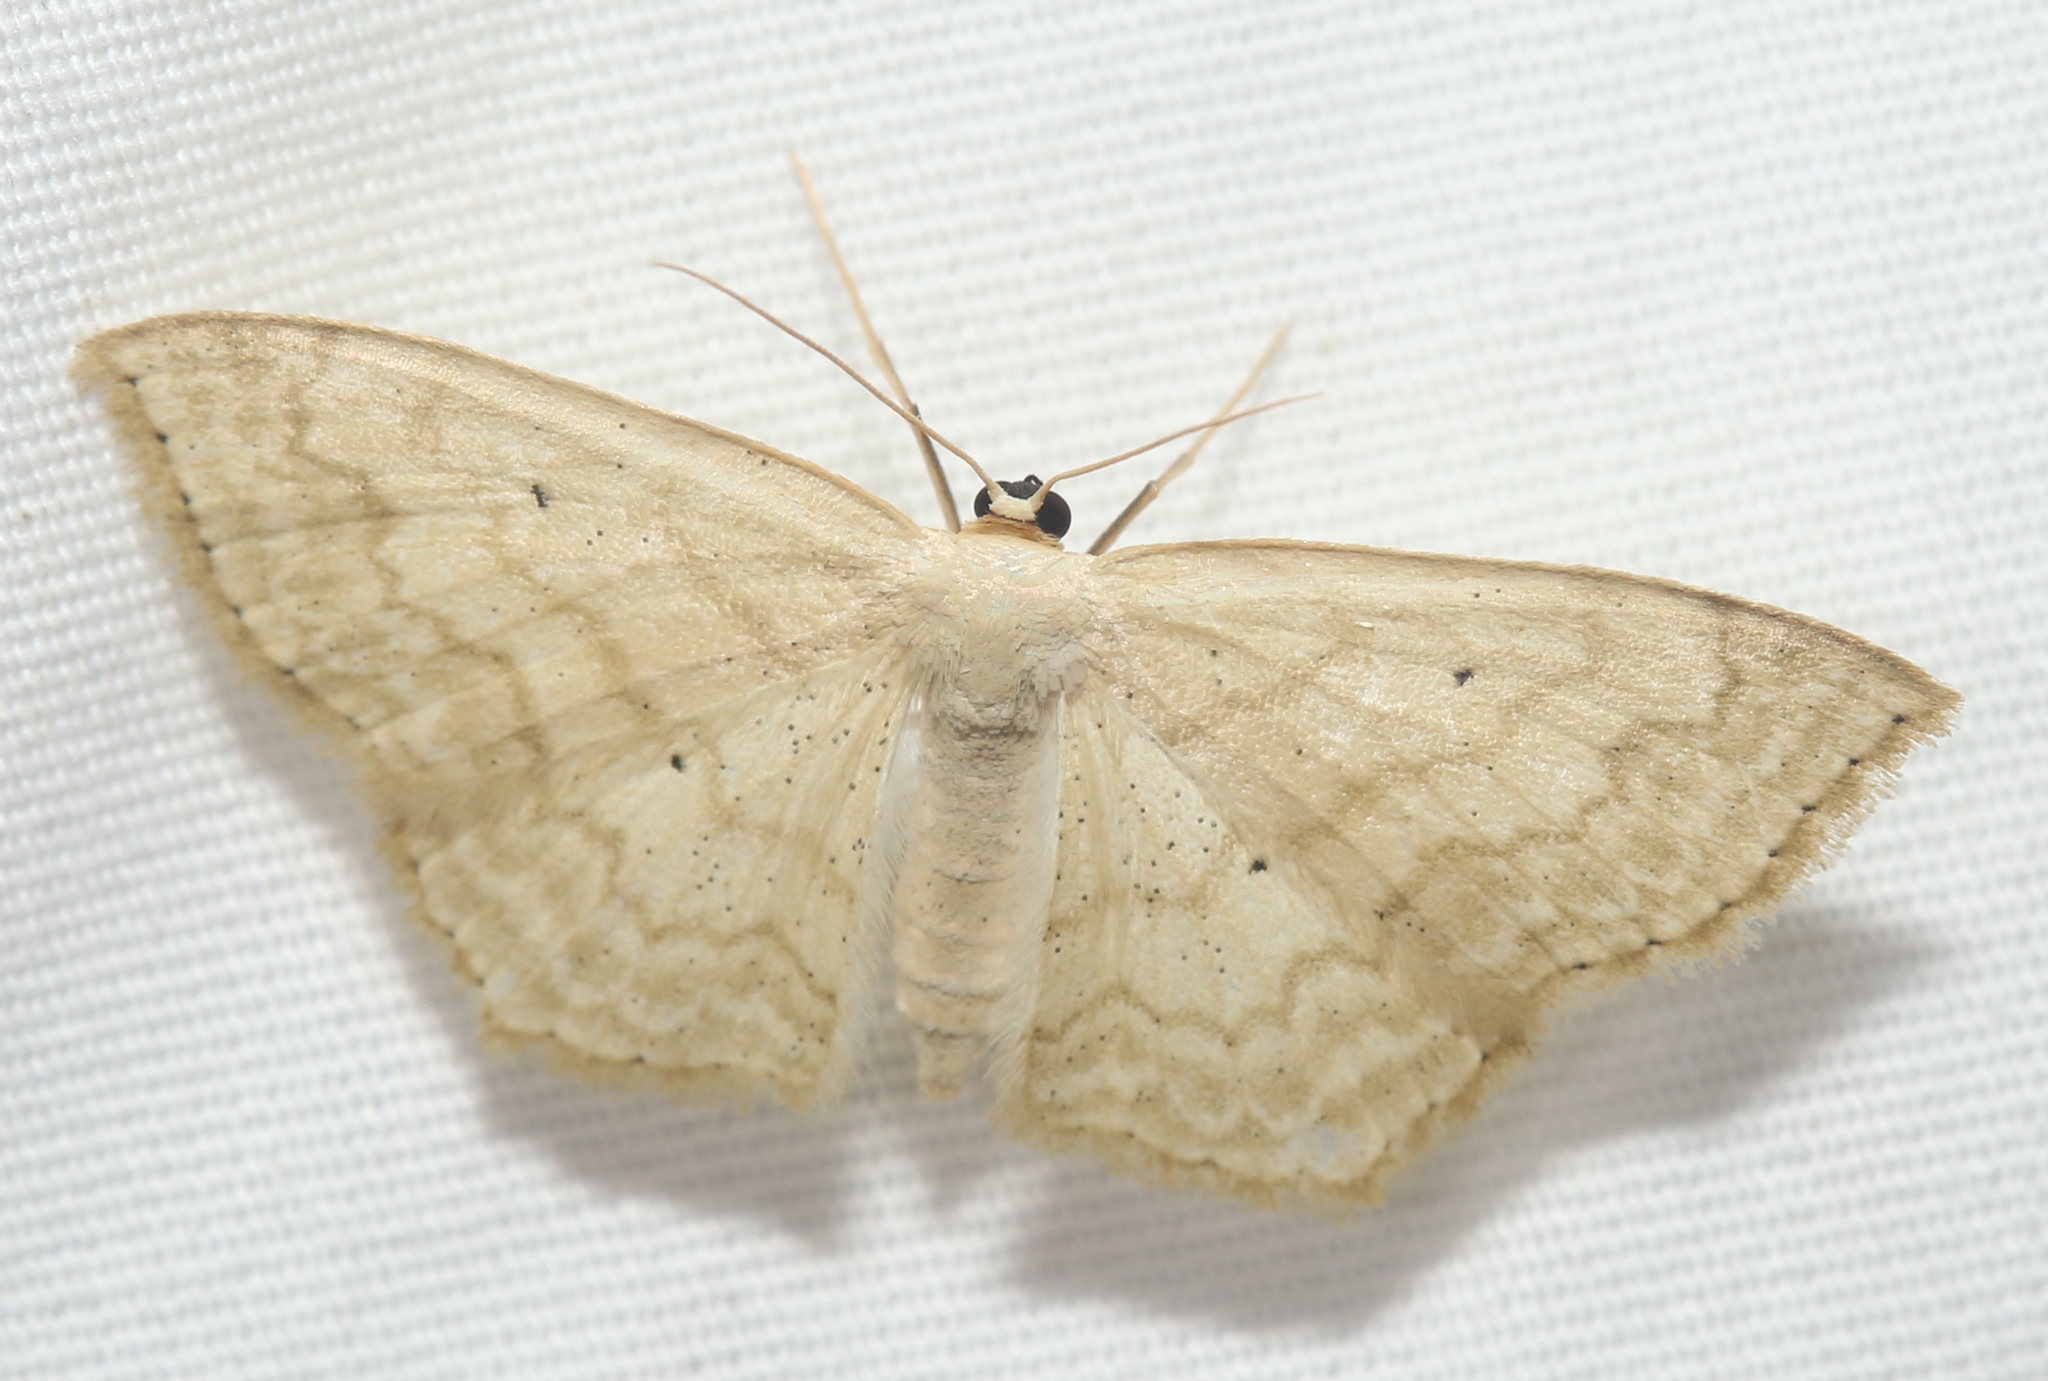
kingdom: Animalia
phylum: Arthropoda
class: Insecta
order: Lepidoptera
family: Geometridae
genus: Scopula
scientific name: Scopula limboundata
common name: Large lace border
